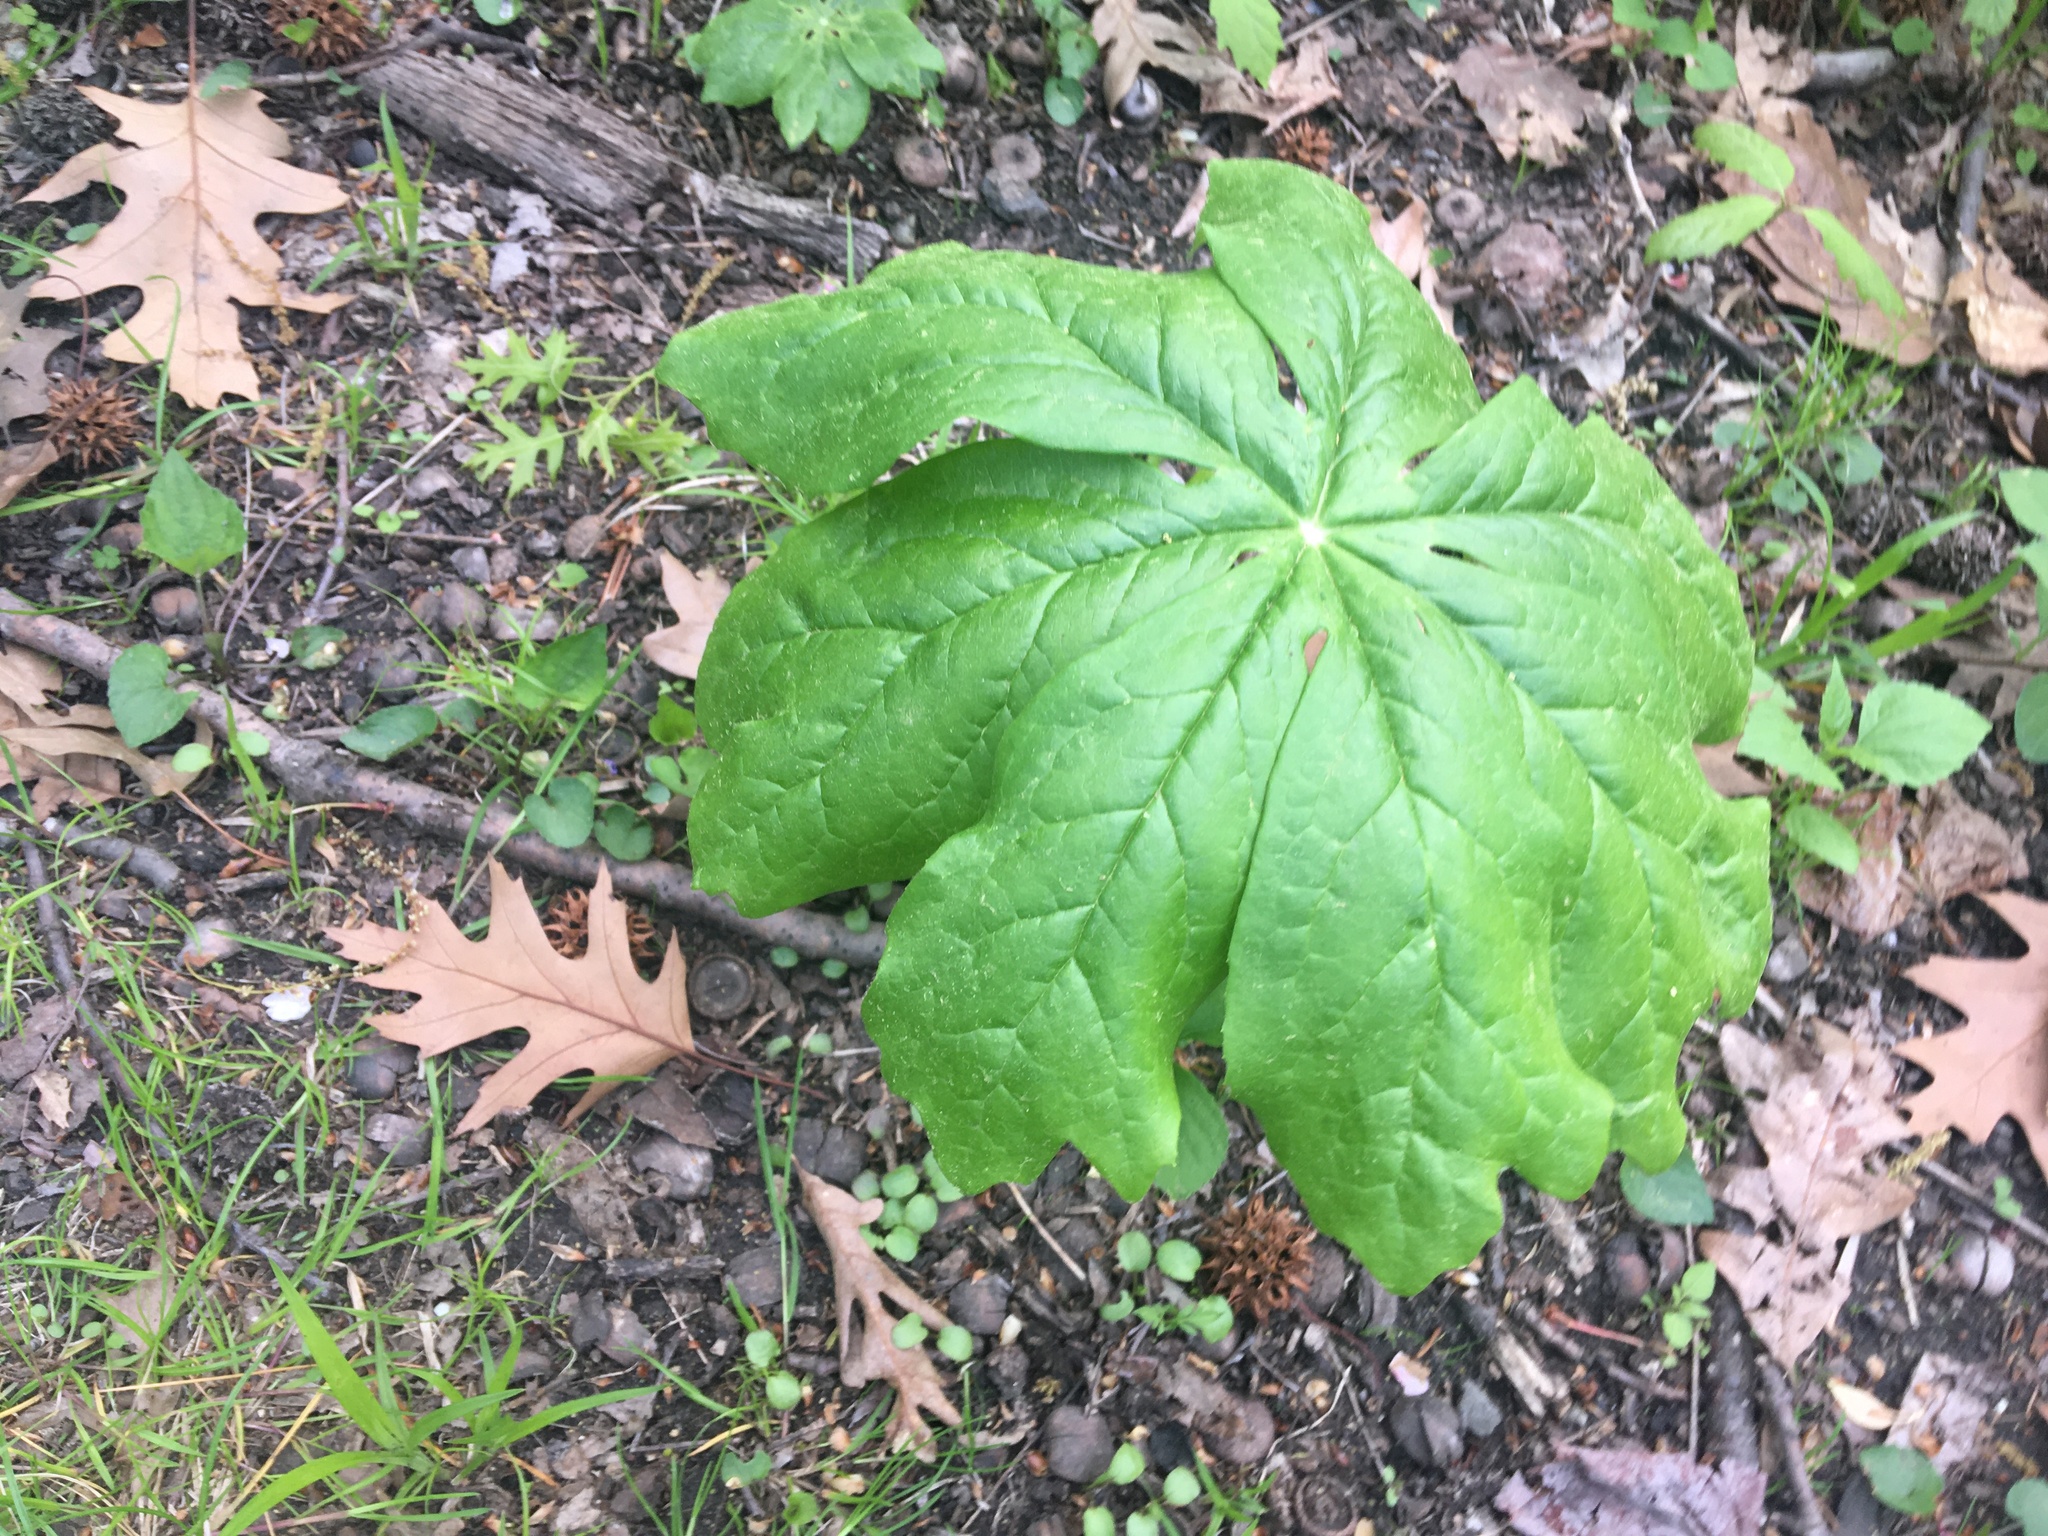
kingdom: Plantae
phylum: Tracheophyta
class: Magnoliopsida
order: Ranunculales
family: Berberidaceae
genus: Podophyllum
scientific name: Podophyllum peltatum
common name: Wild mandrake
